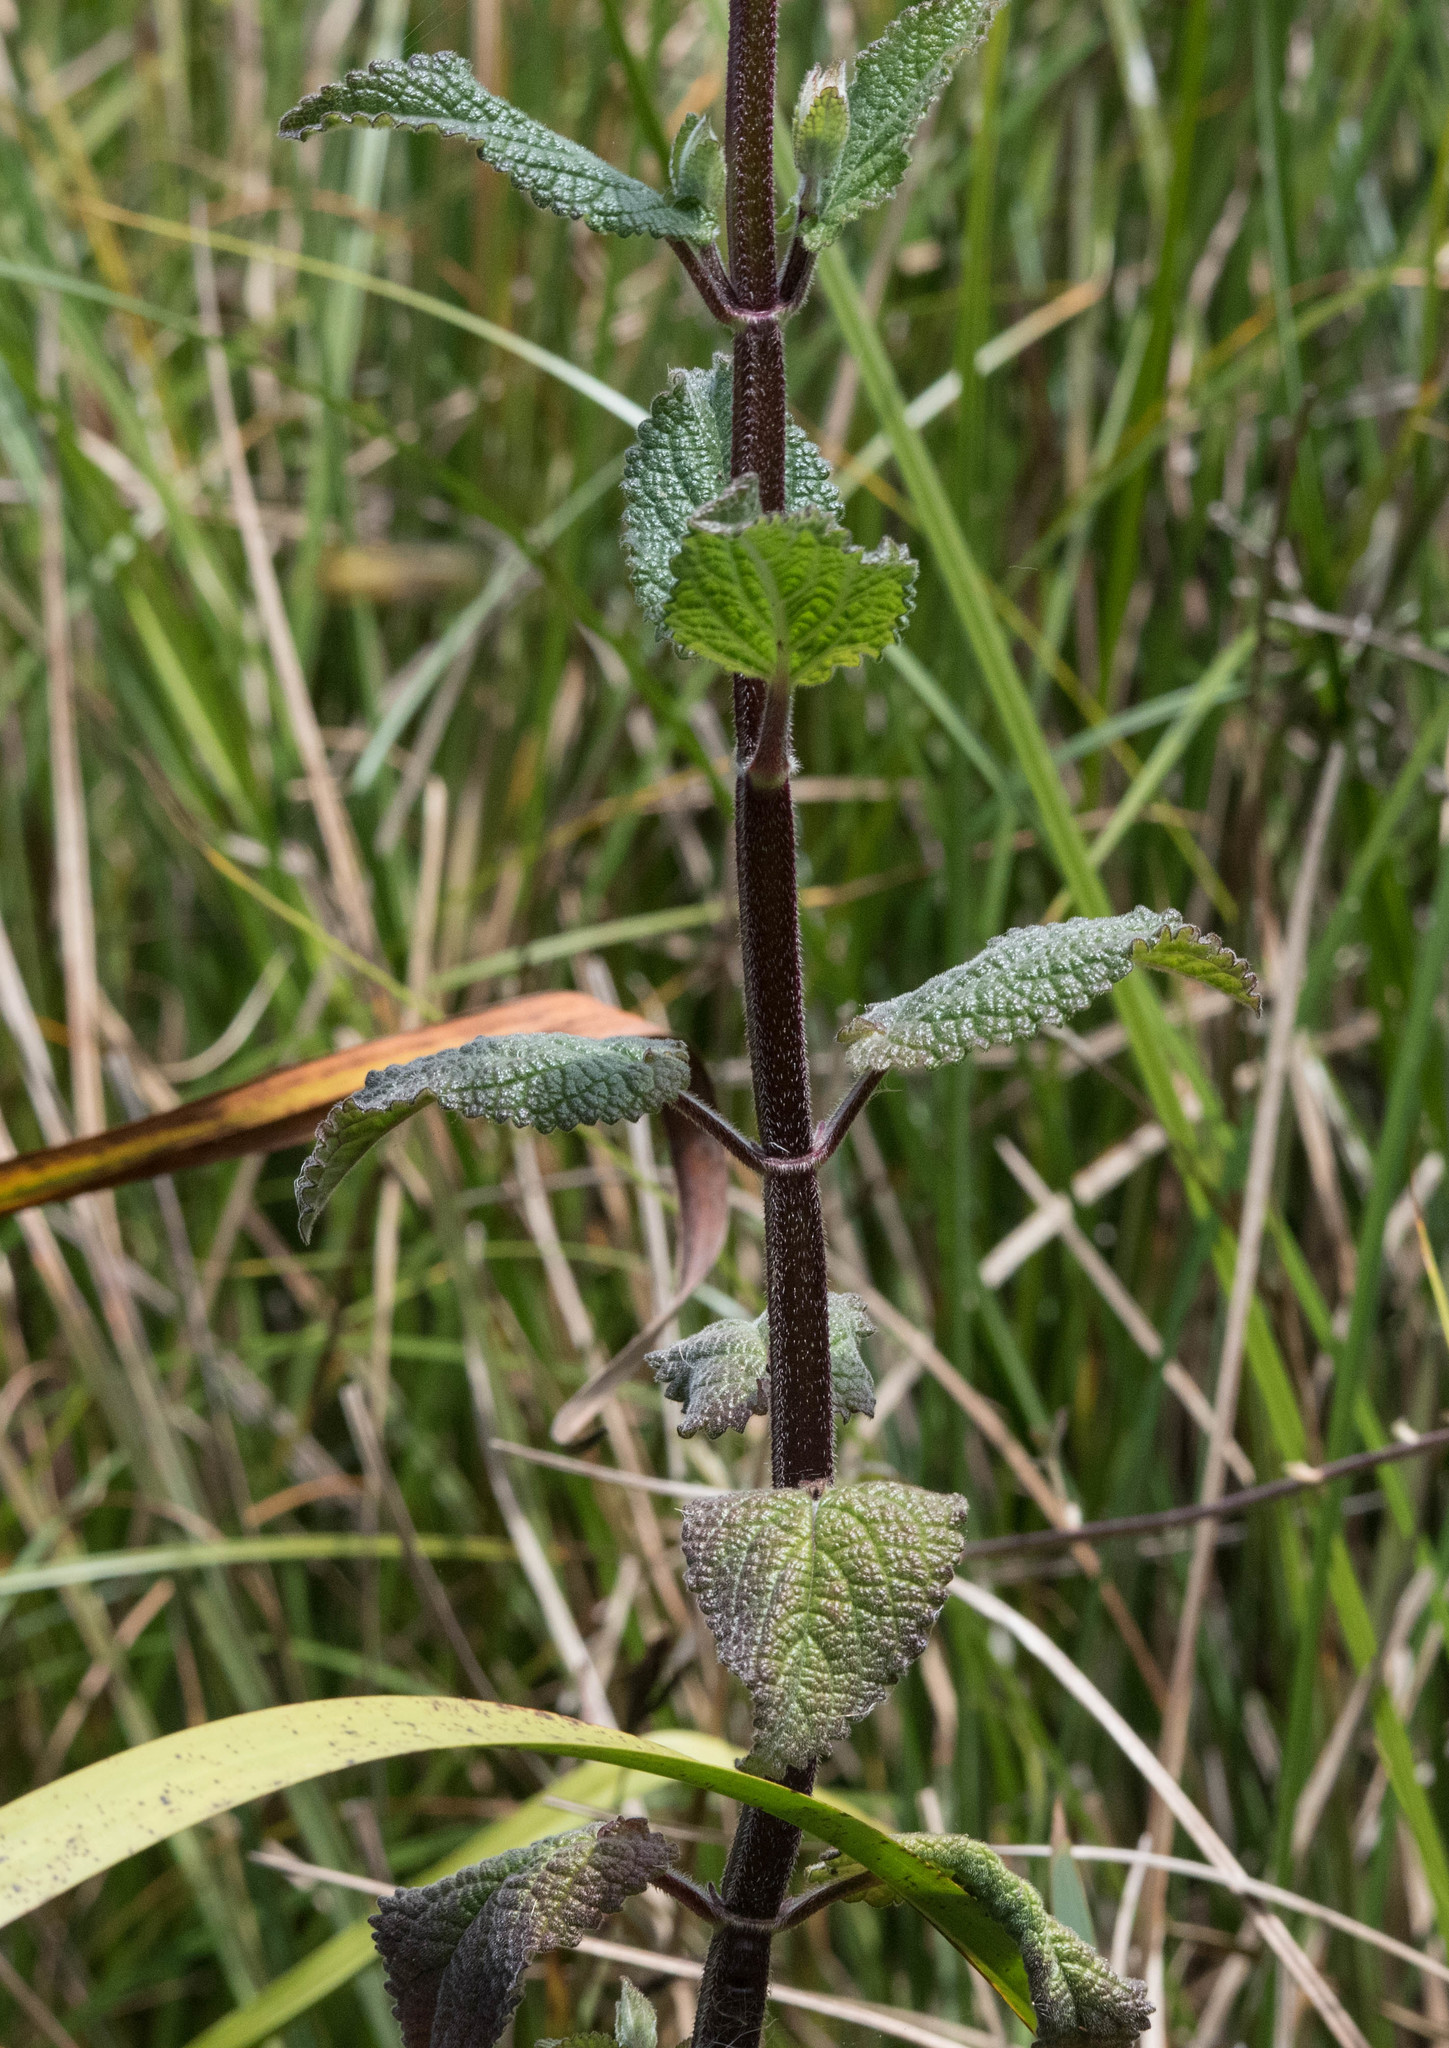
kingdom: Plantae
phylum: Tracheophyta
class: Magnoliopsida
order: Lamiales
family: Lamiaceae
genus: Stachys
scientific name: Stachys chamissonis
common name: Coastal hedge-nettle
